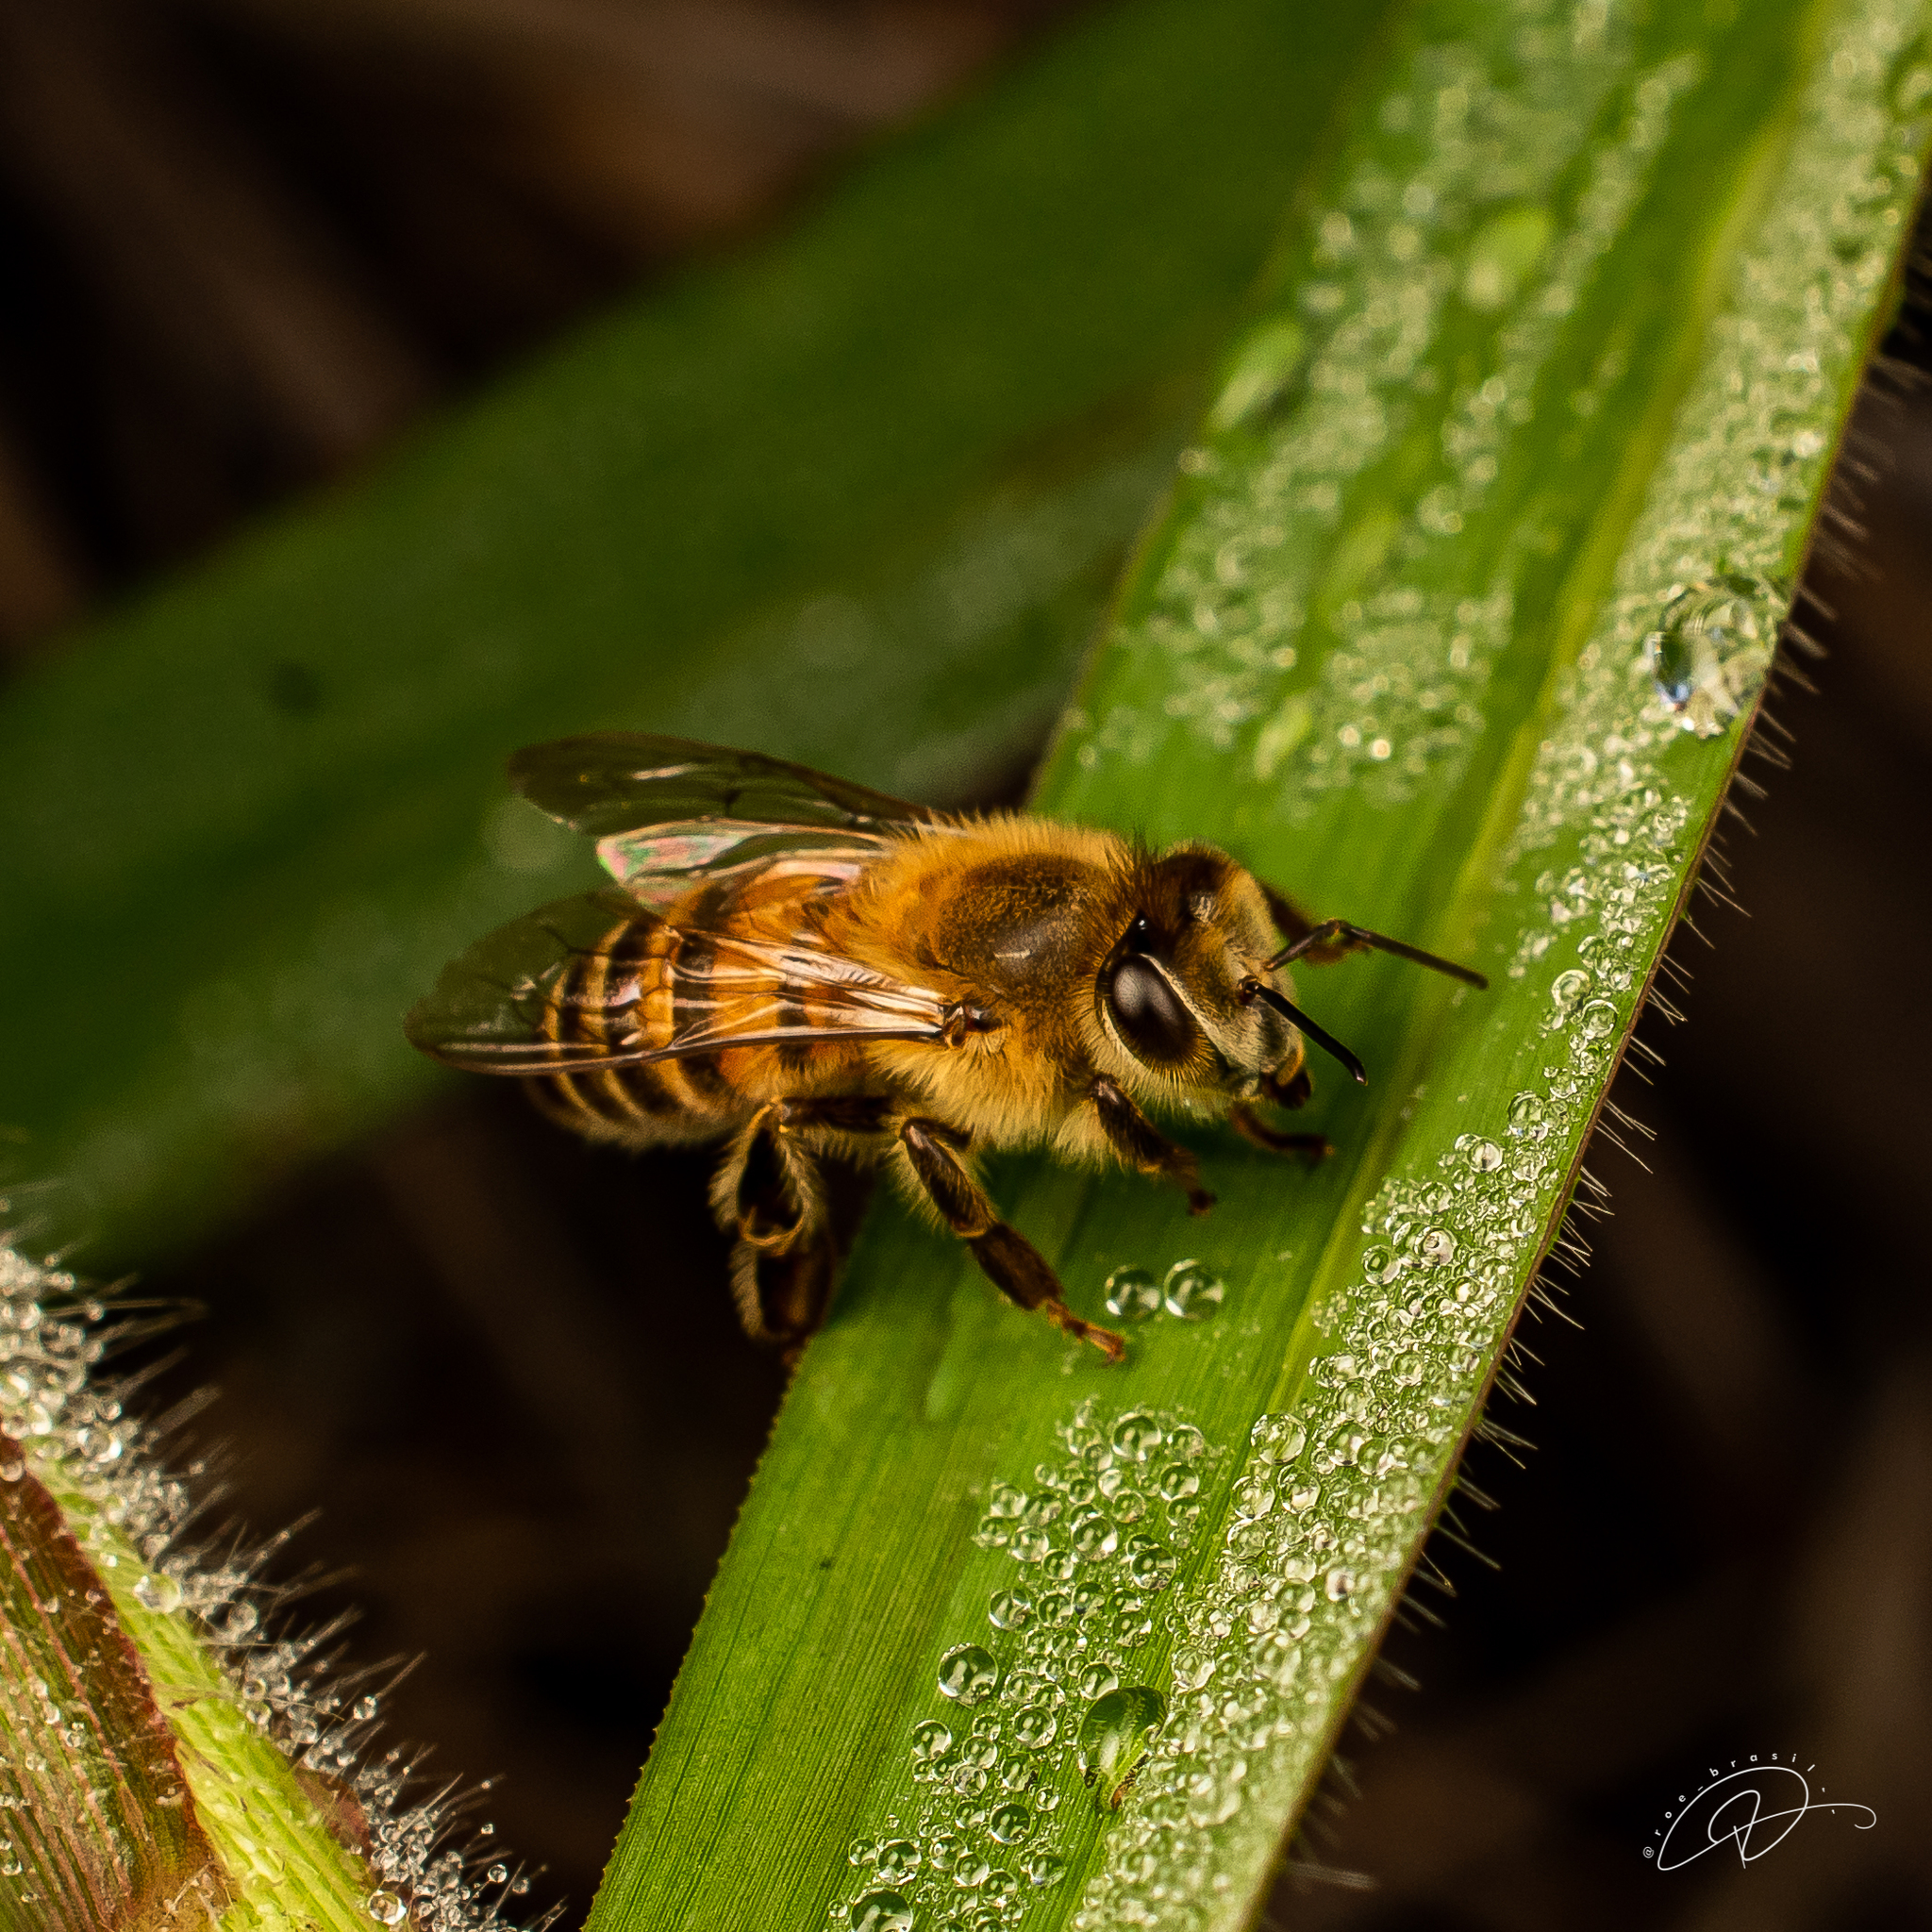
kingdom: Animalia
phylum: Arthropoda
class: Insecta
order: Hymenoptera
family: Apidae
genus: Apis
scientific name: Apis mellifera
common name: Honey bee
